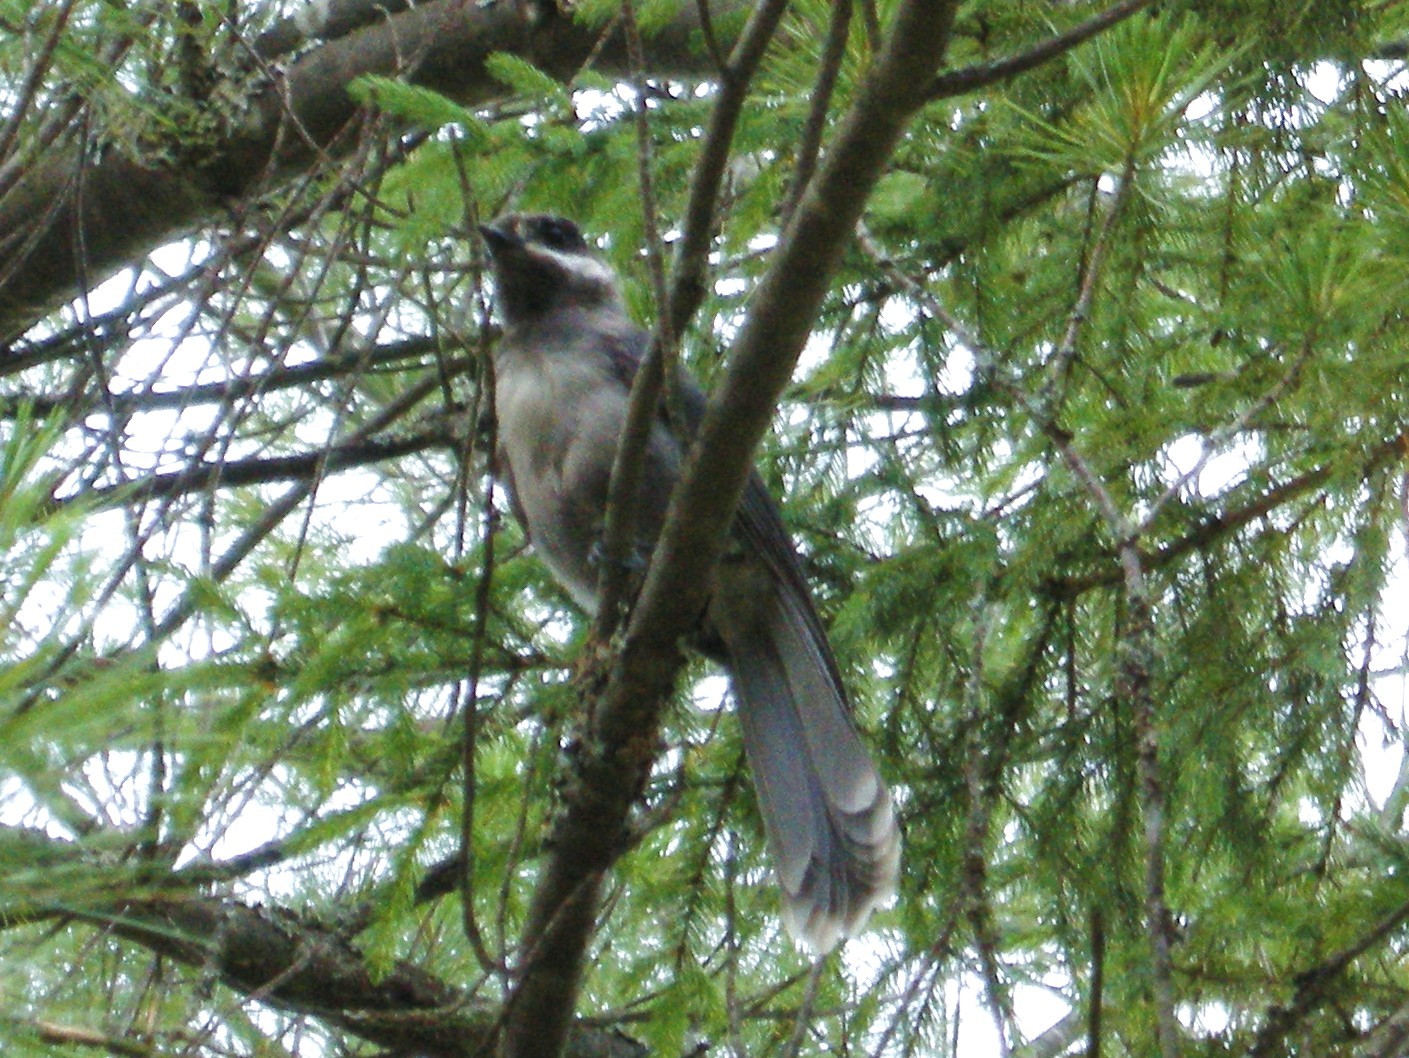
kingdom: Animalia
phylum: Chordata
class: Aves
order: Passeriformes
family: Corvidae
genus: Perisoreus
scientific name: Perisoreus canadensis
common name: Gray jay
